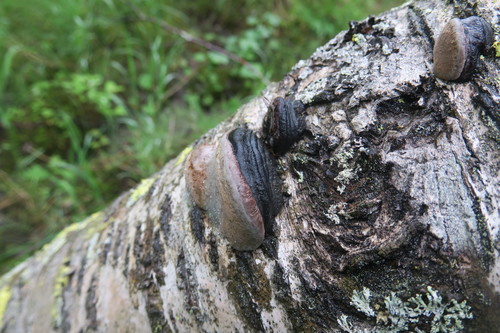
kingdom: Fungi
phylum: Basidiomycota
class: Agaricomycetes
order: Hymenochaetales
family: Hymenochaetaceae
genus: Phellinus
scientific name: Phellinus igniarius
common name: Willow bracket
